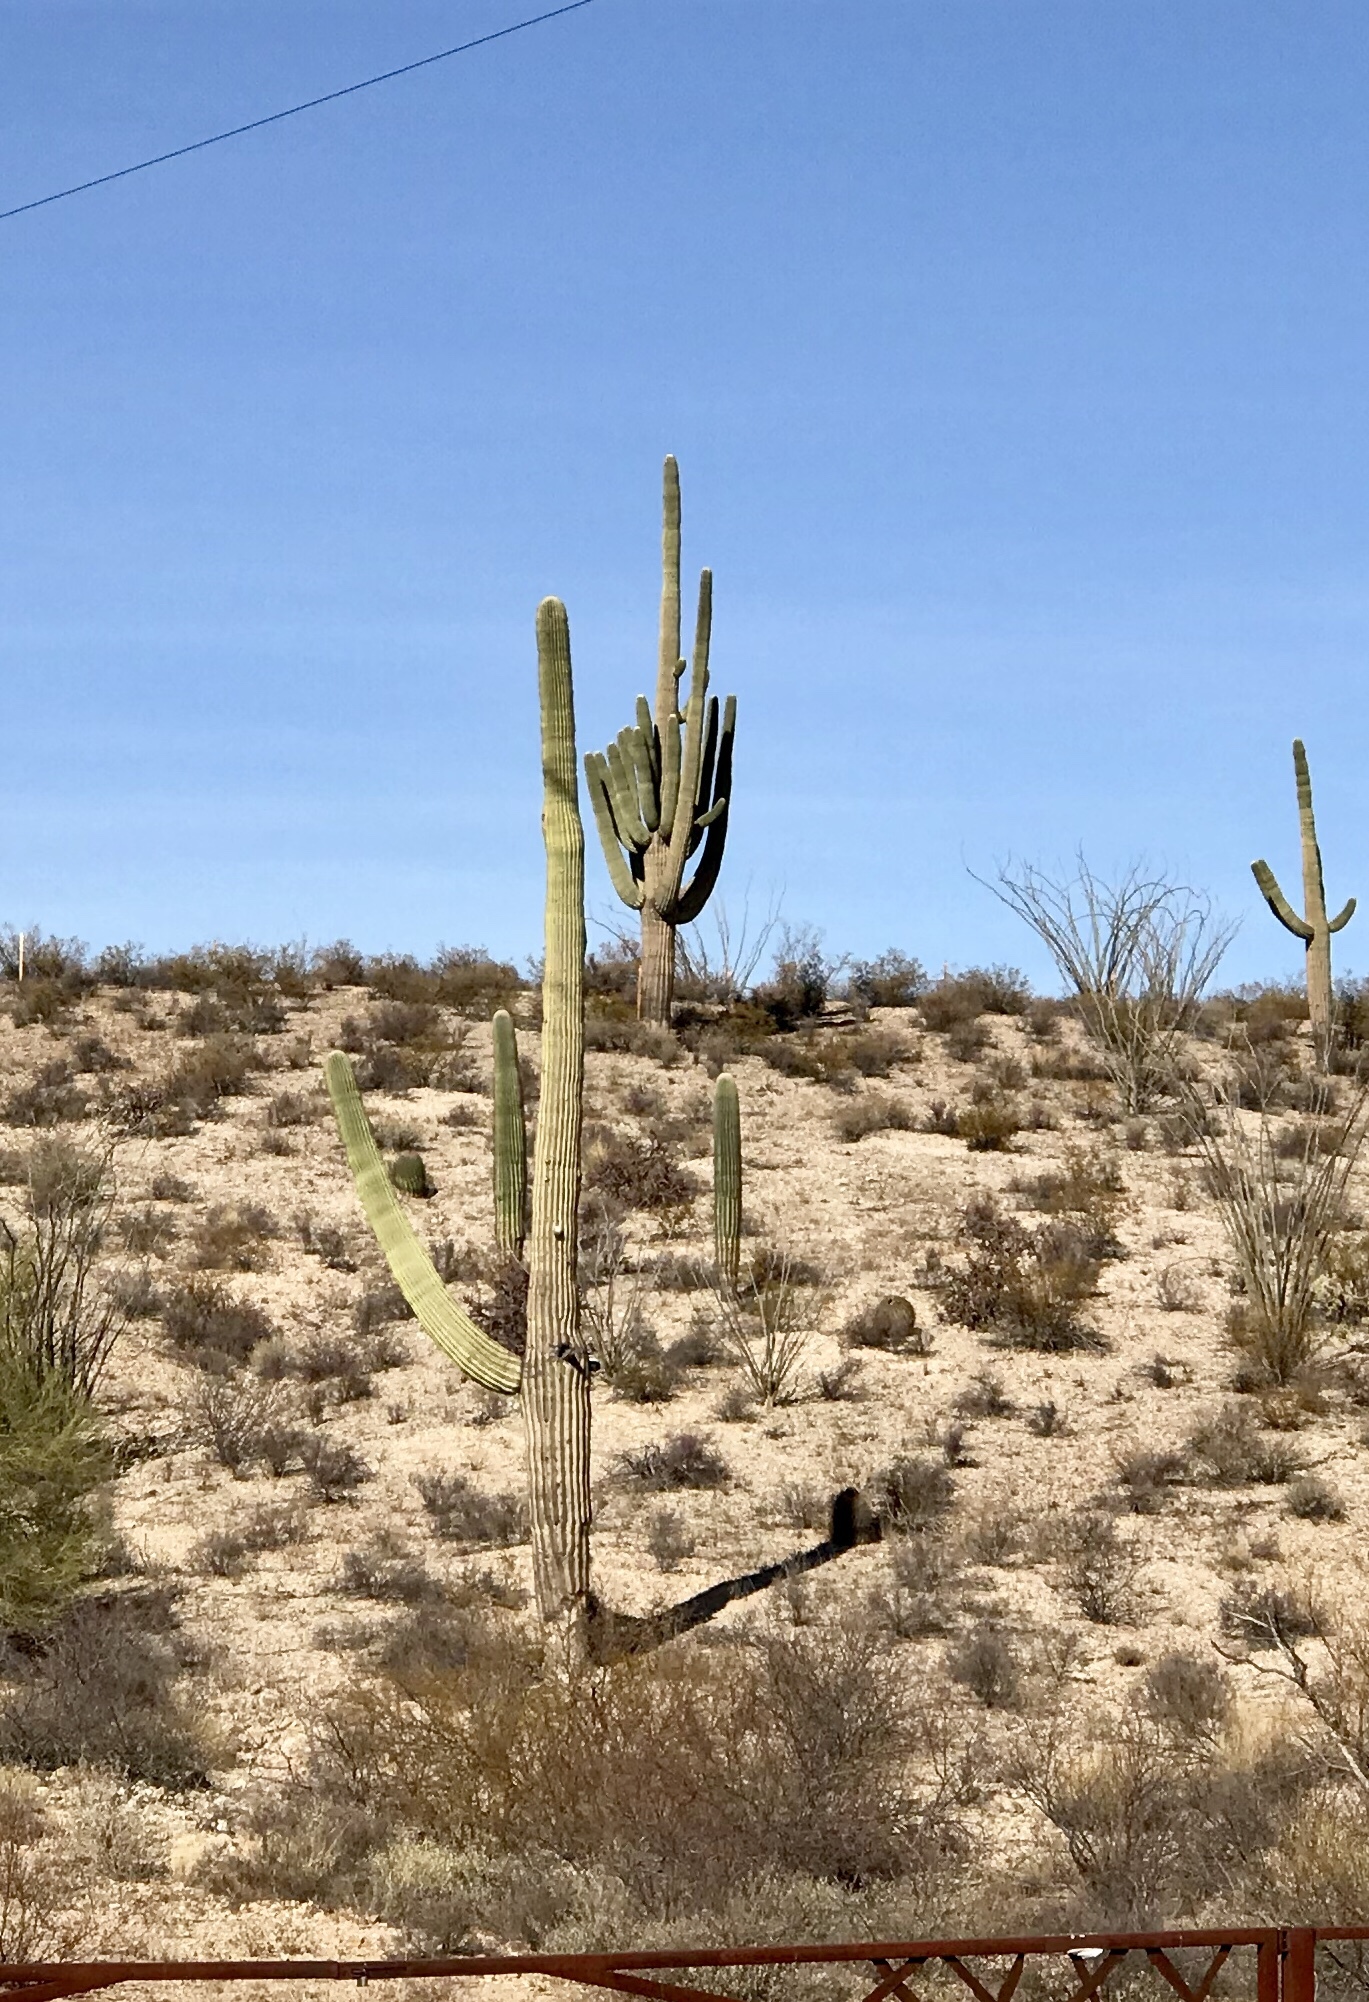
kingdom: Plantae
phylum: Tracheophyta
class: Magnoliopsida
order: Caryophyllales
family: Cactaceae
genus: Carnegiea
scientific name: Carnegiea gigantea
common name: Saguaro
